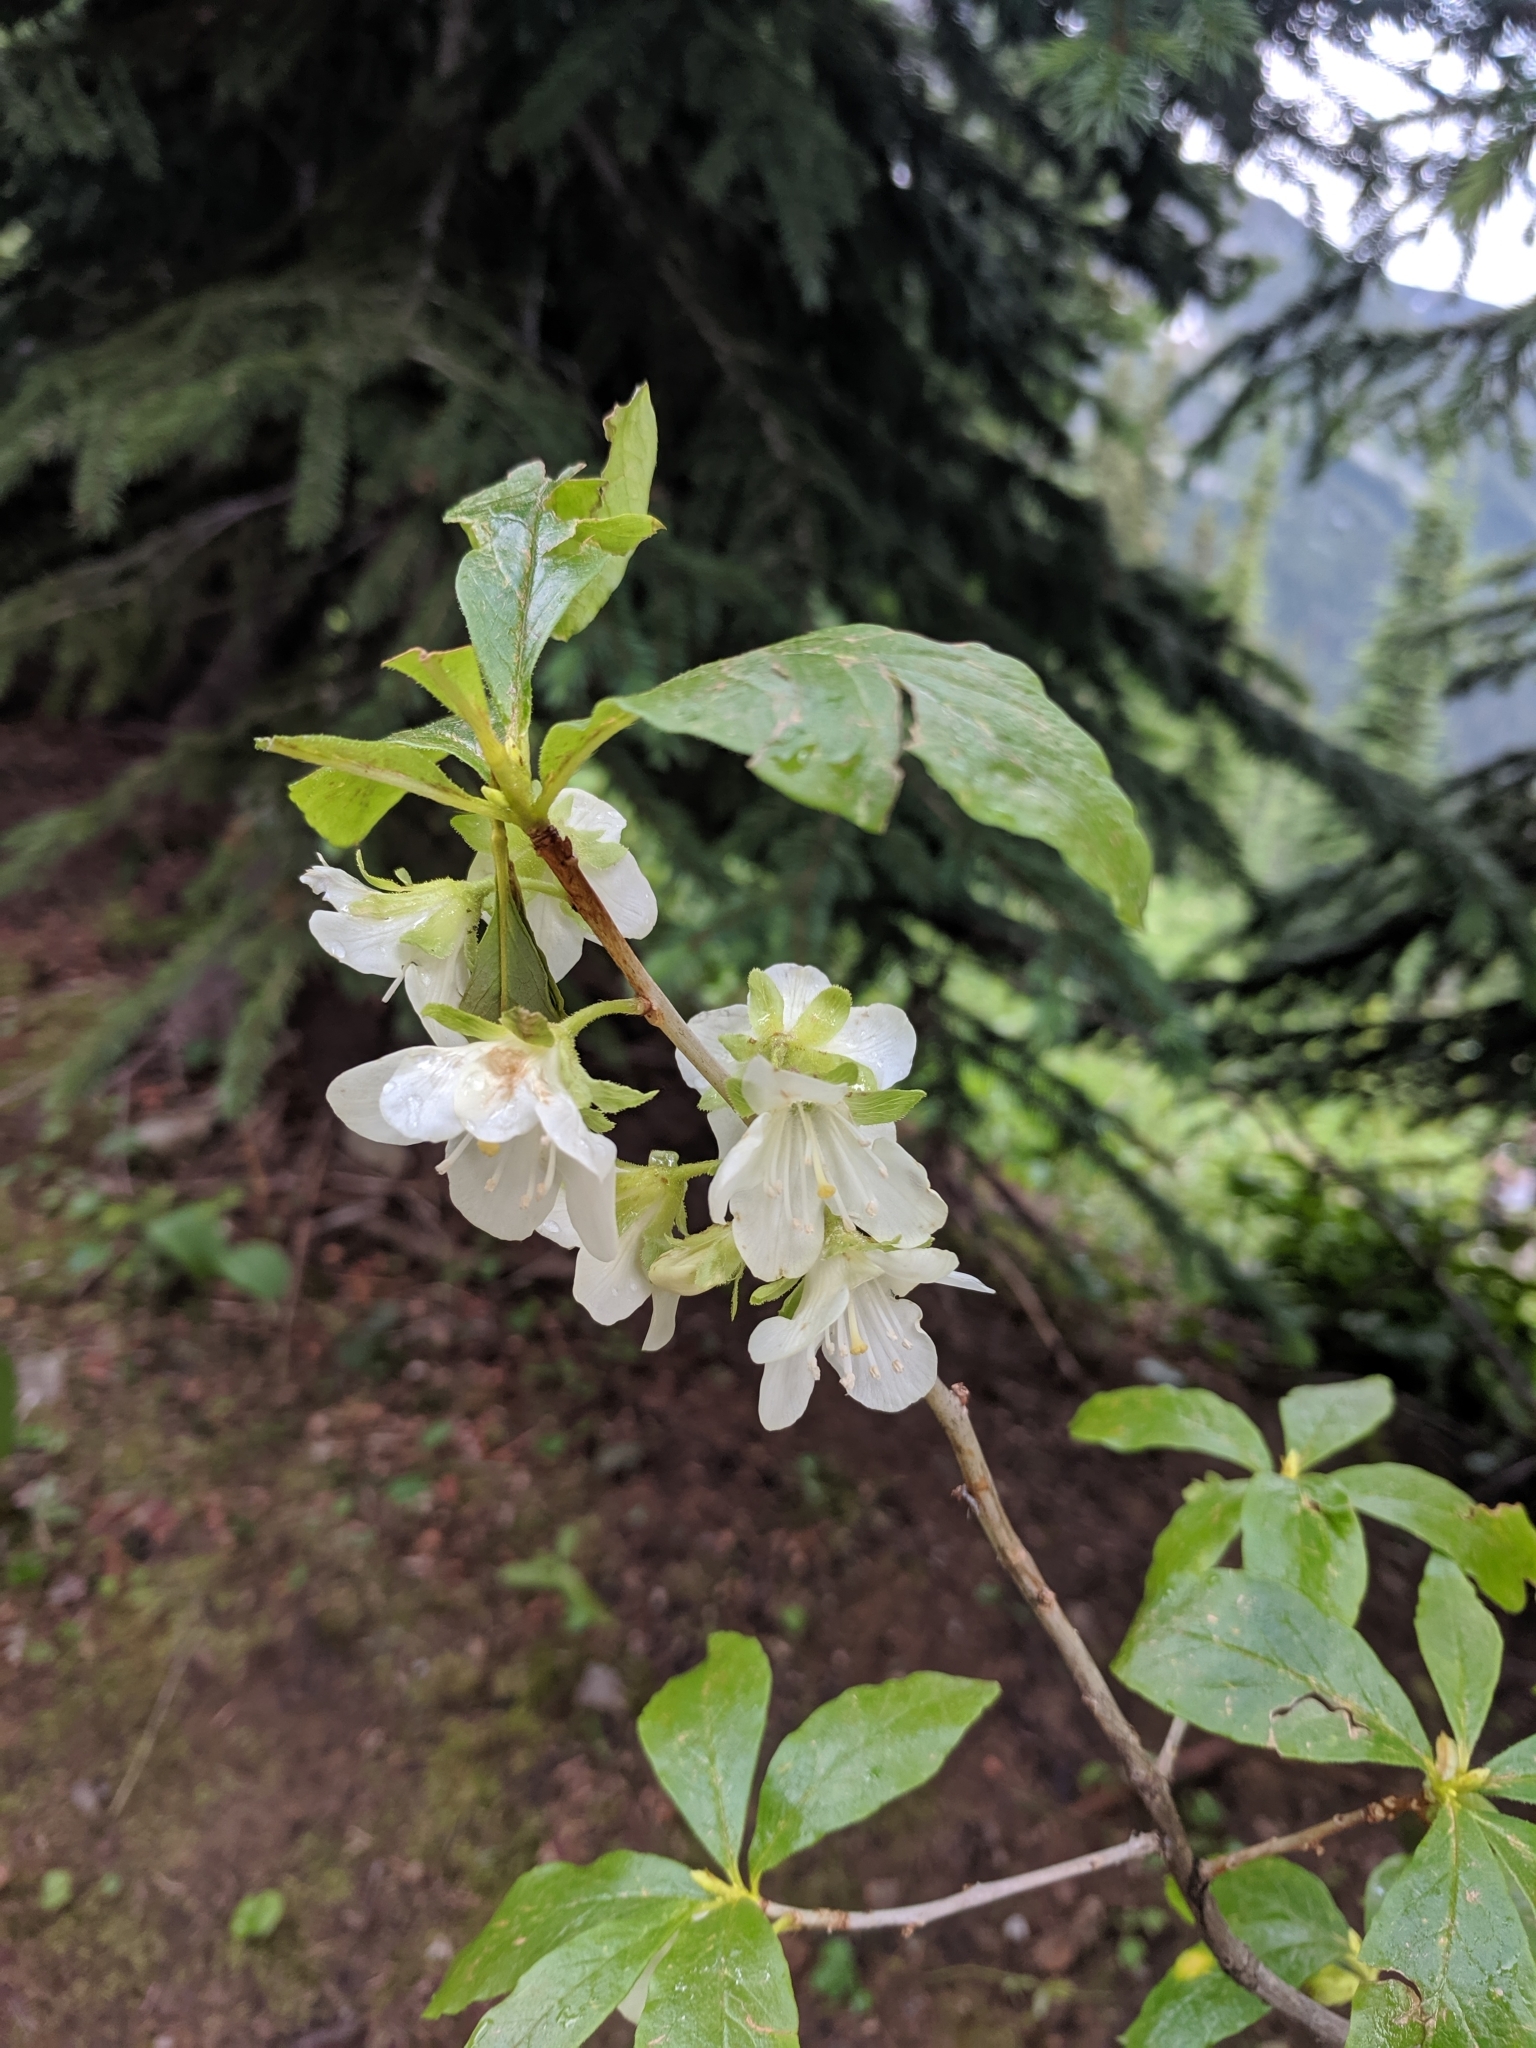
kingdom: Plantae
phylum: Tracheophyta
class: Magnoliopsida
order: Ericales
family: Ericaceae
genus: Rhododendron
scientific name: Rhododendron albiflorum
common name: White rhododendron
